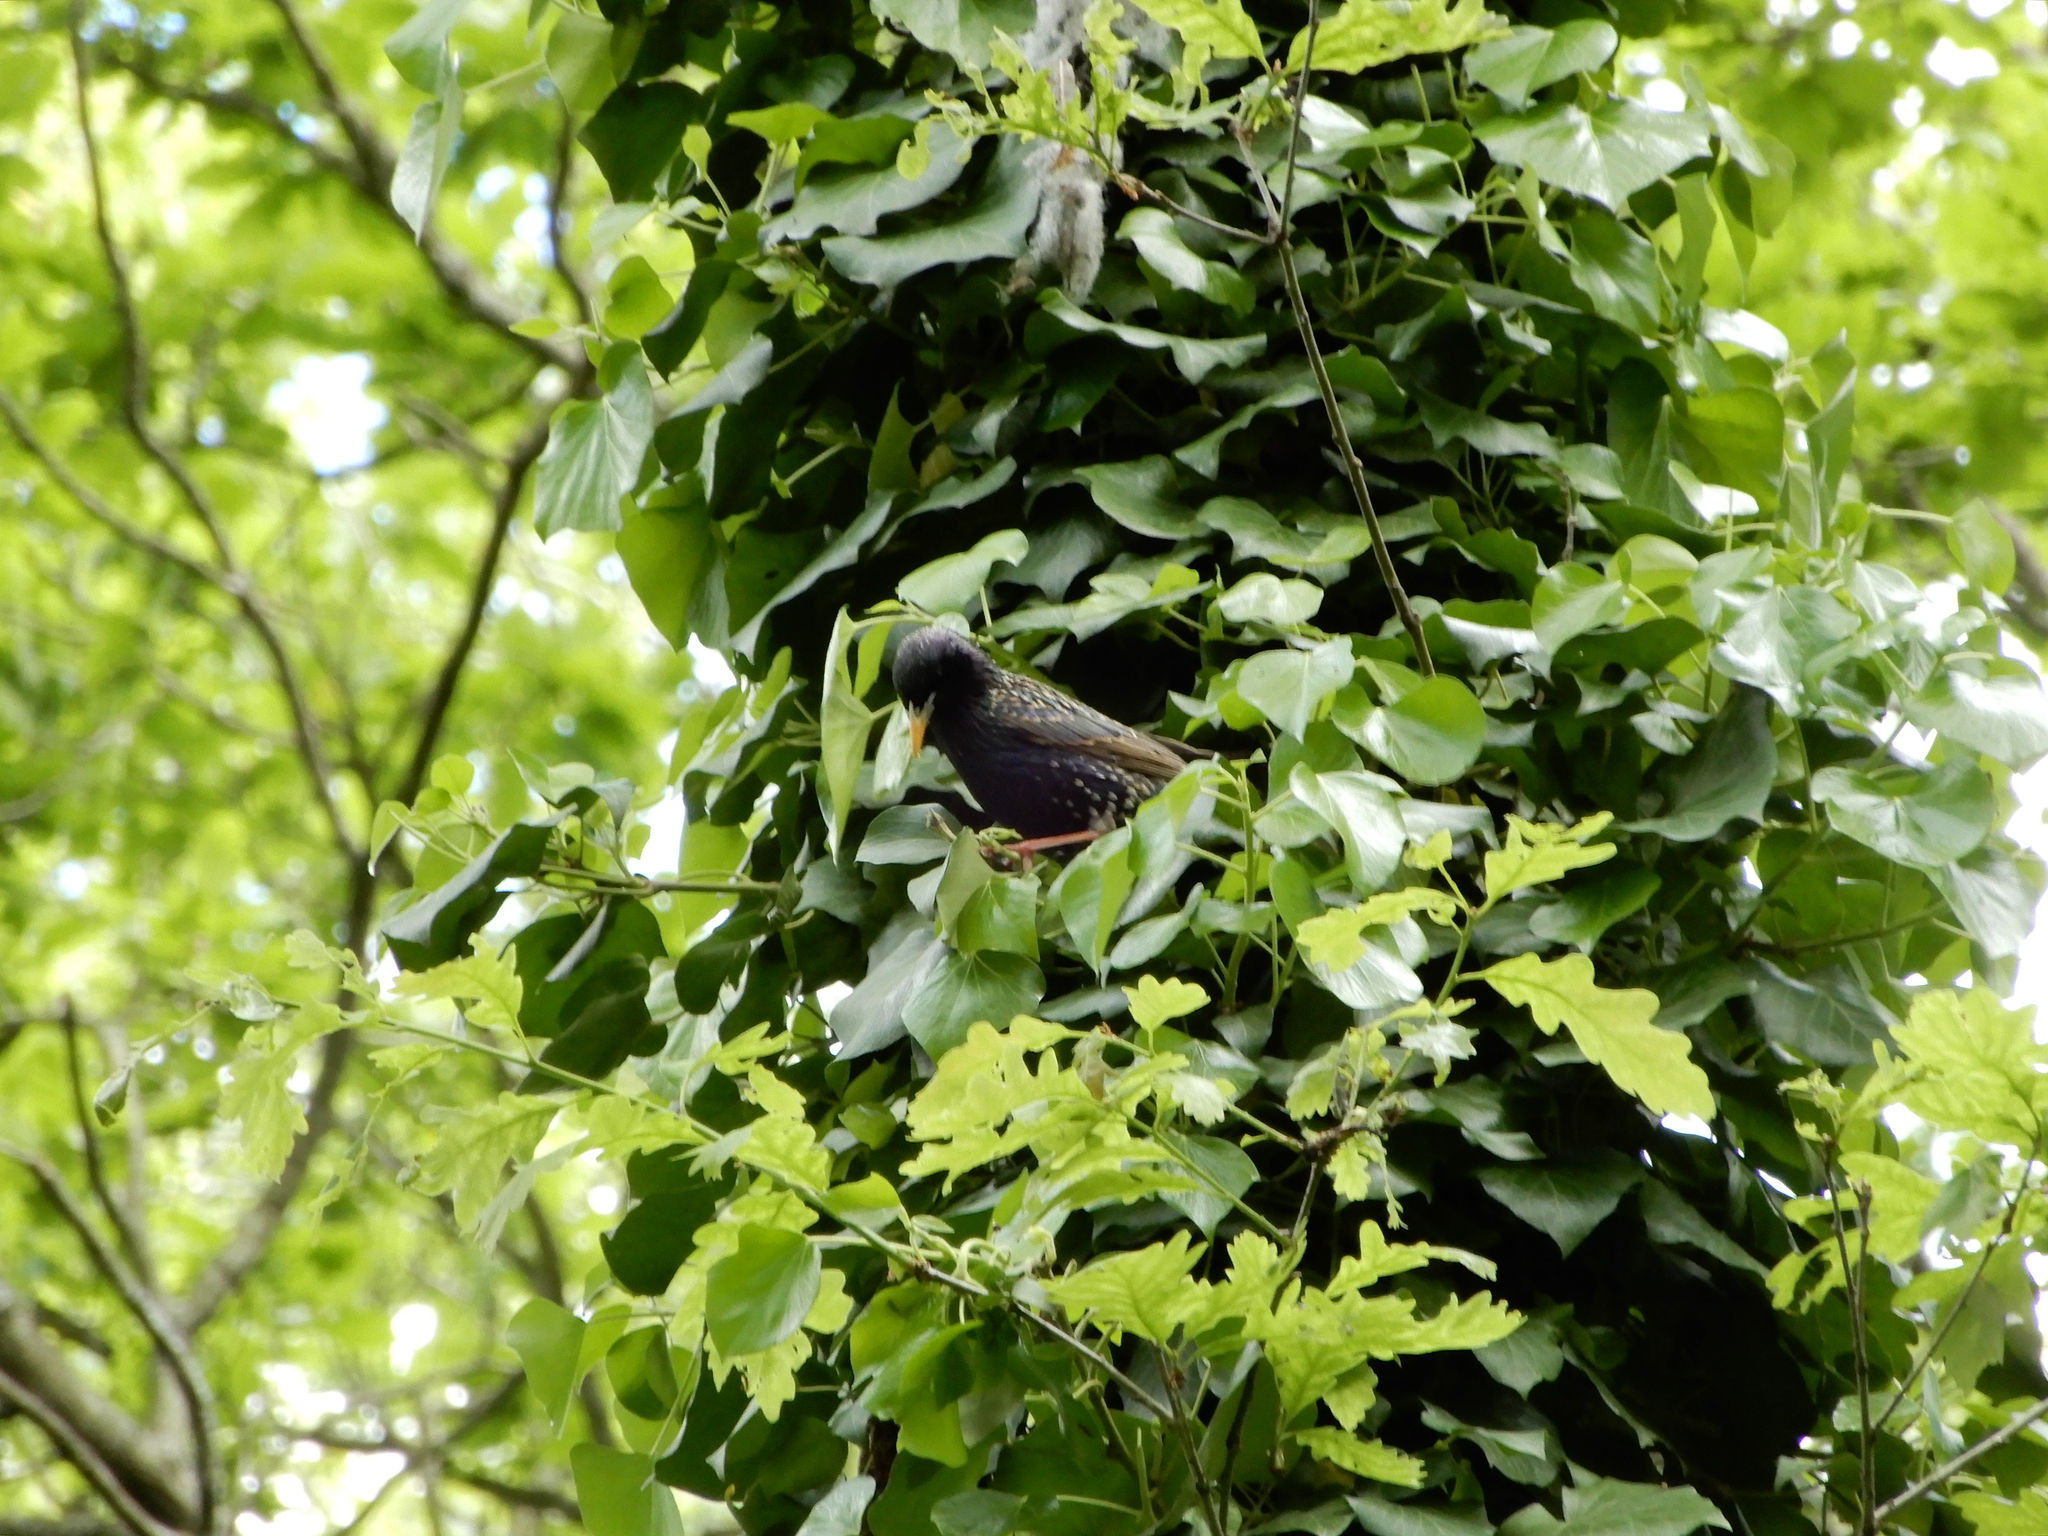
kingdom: Animalia
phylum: Chordata
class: Aves
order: Passeriformes
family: Sturnidae
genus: Sturnus
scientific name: Sturnus vulgaris
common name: Common starling
